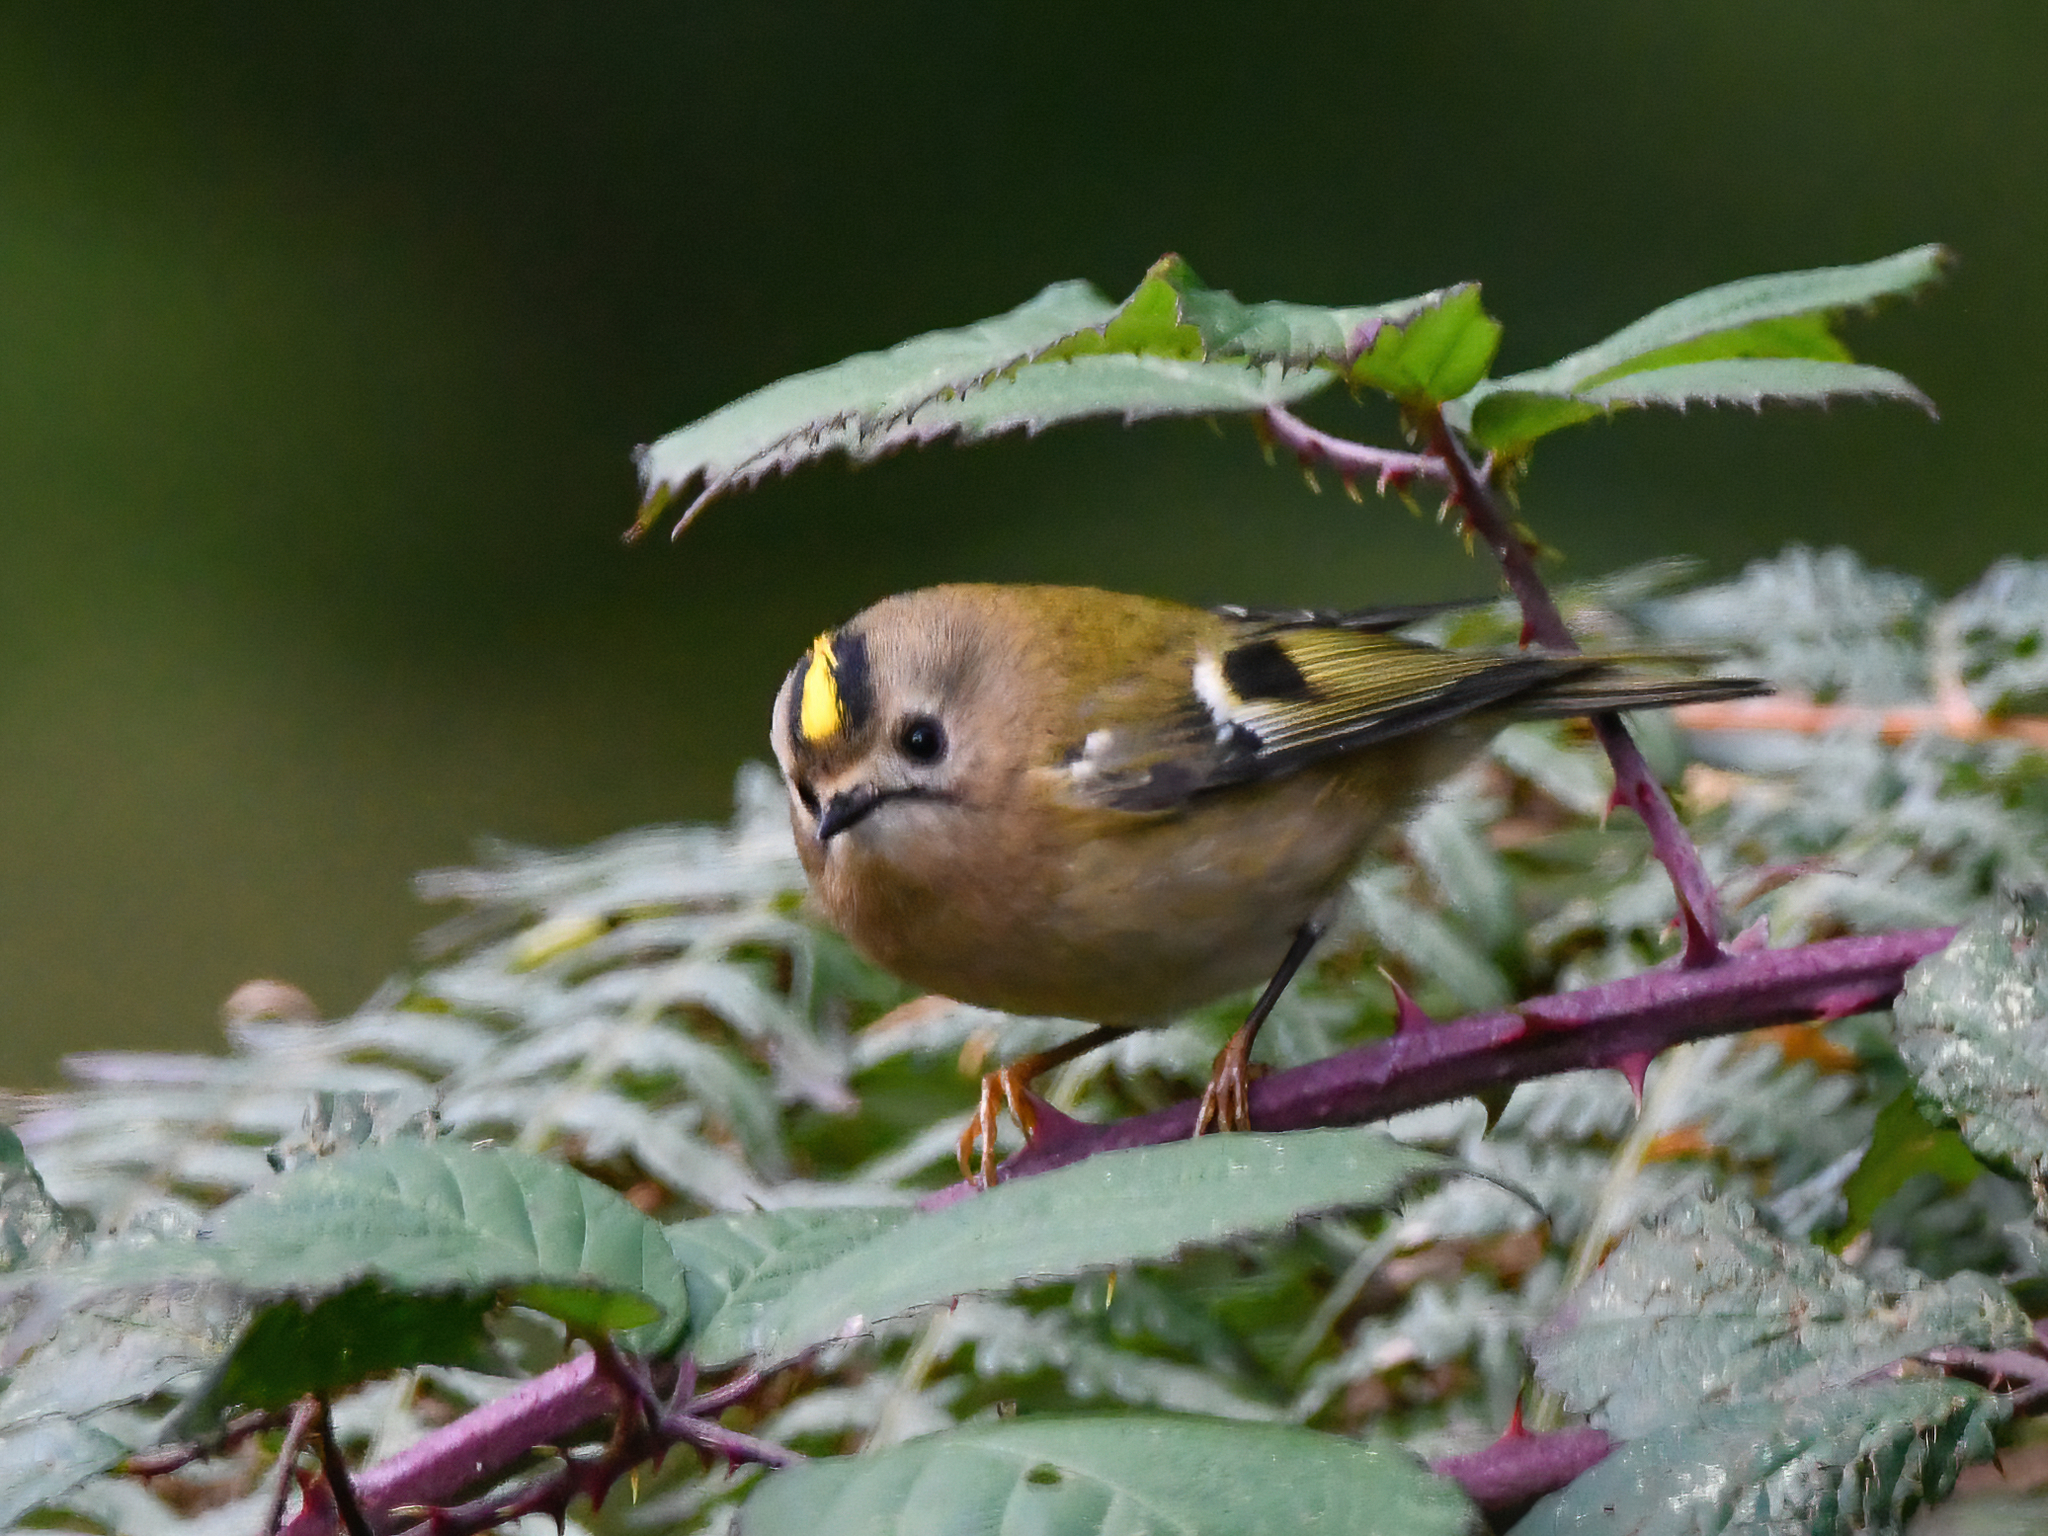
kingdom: Animalia
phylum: Chordata
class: Aves
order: Passeriformes
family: Regulidae
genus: Regulus
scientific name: Regulus regulus
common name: Goldcrest
